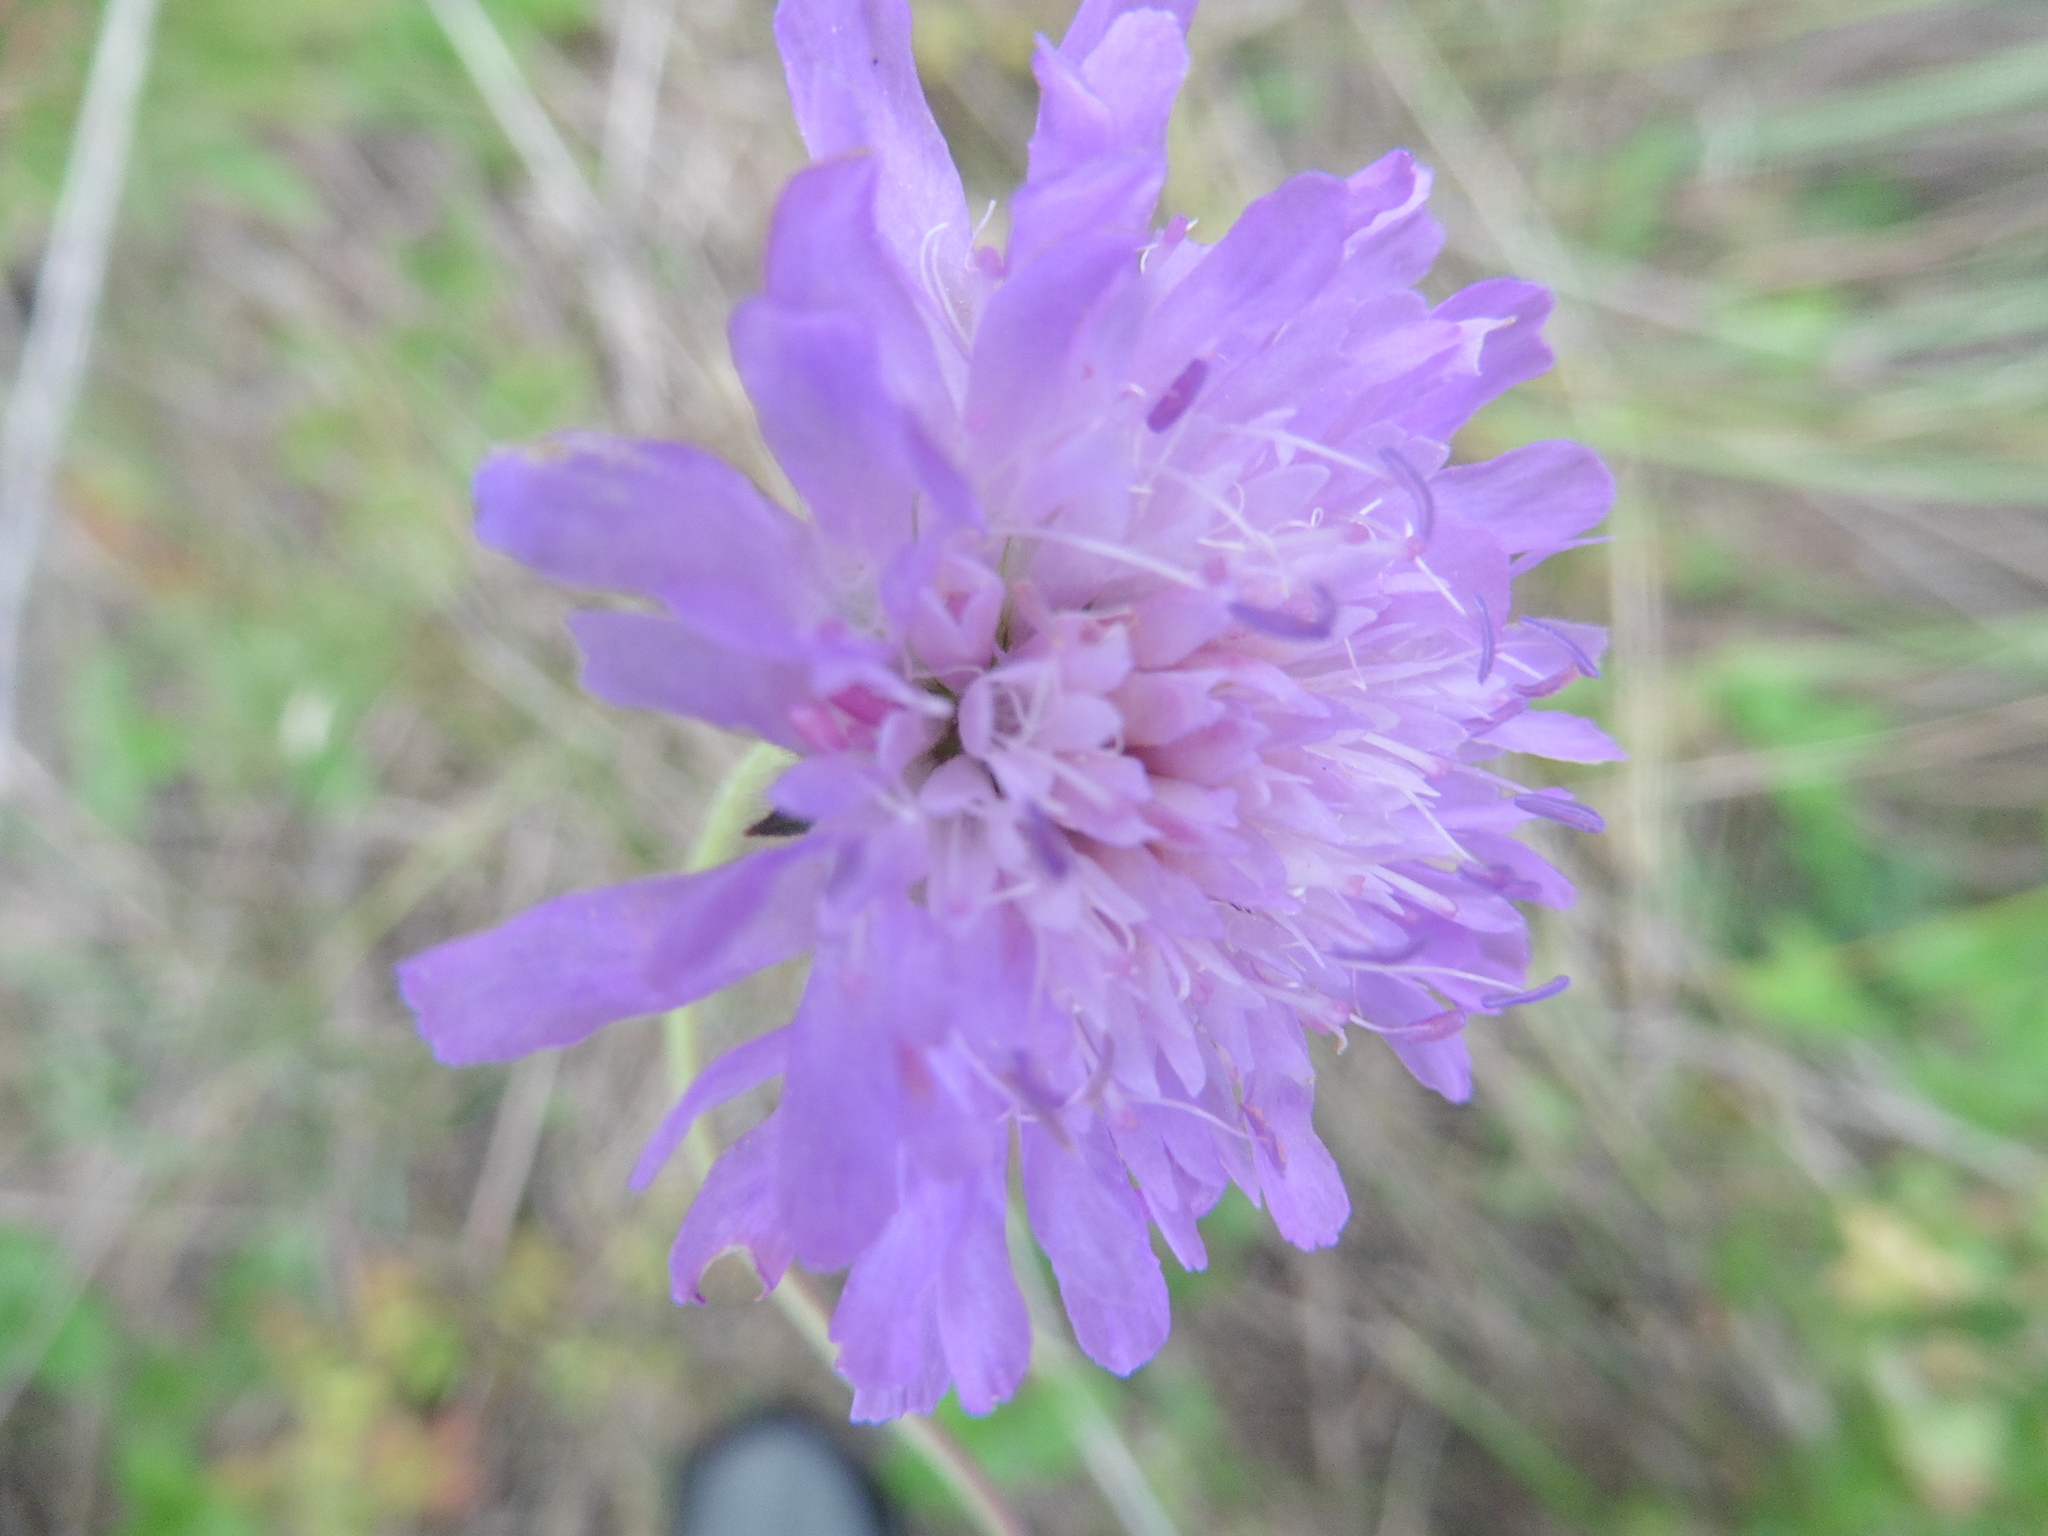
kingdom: Plantae
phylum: Tracheophyta
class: Magnoliopsida
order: Dipsacales
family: Caprifoliaceae
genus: Knautia
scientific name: Knautia arvensis
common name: Field scabiosa
